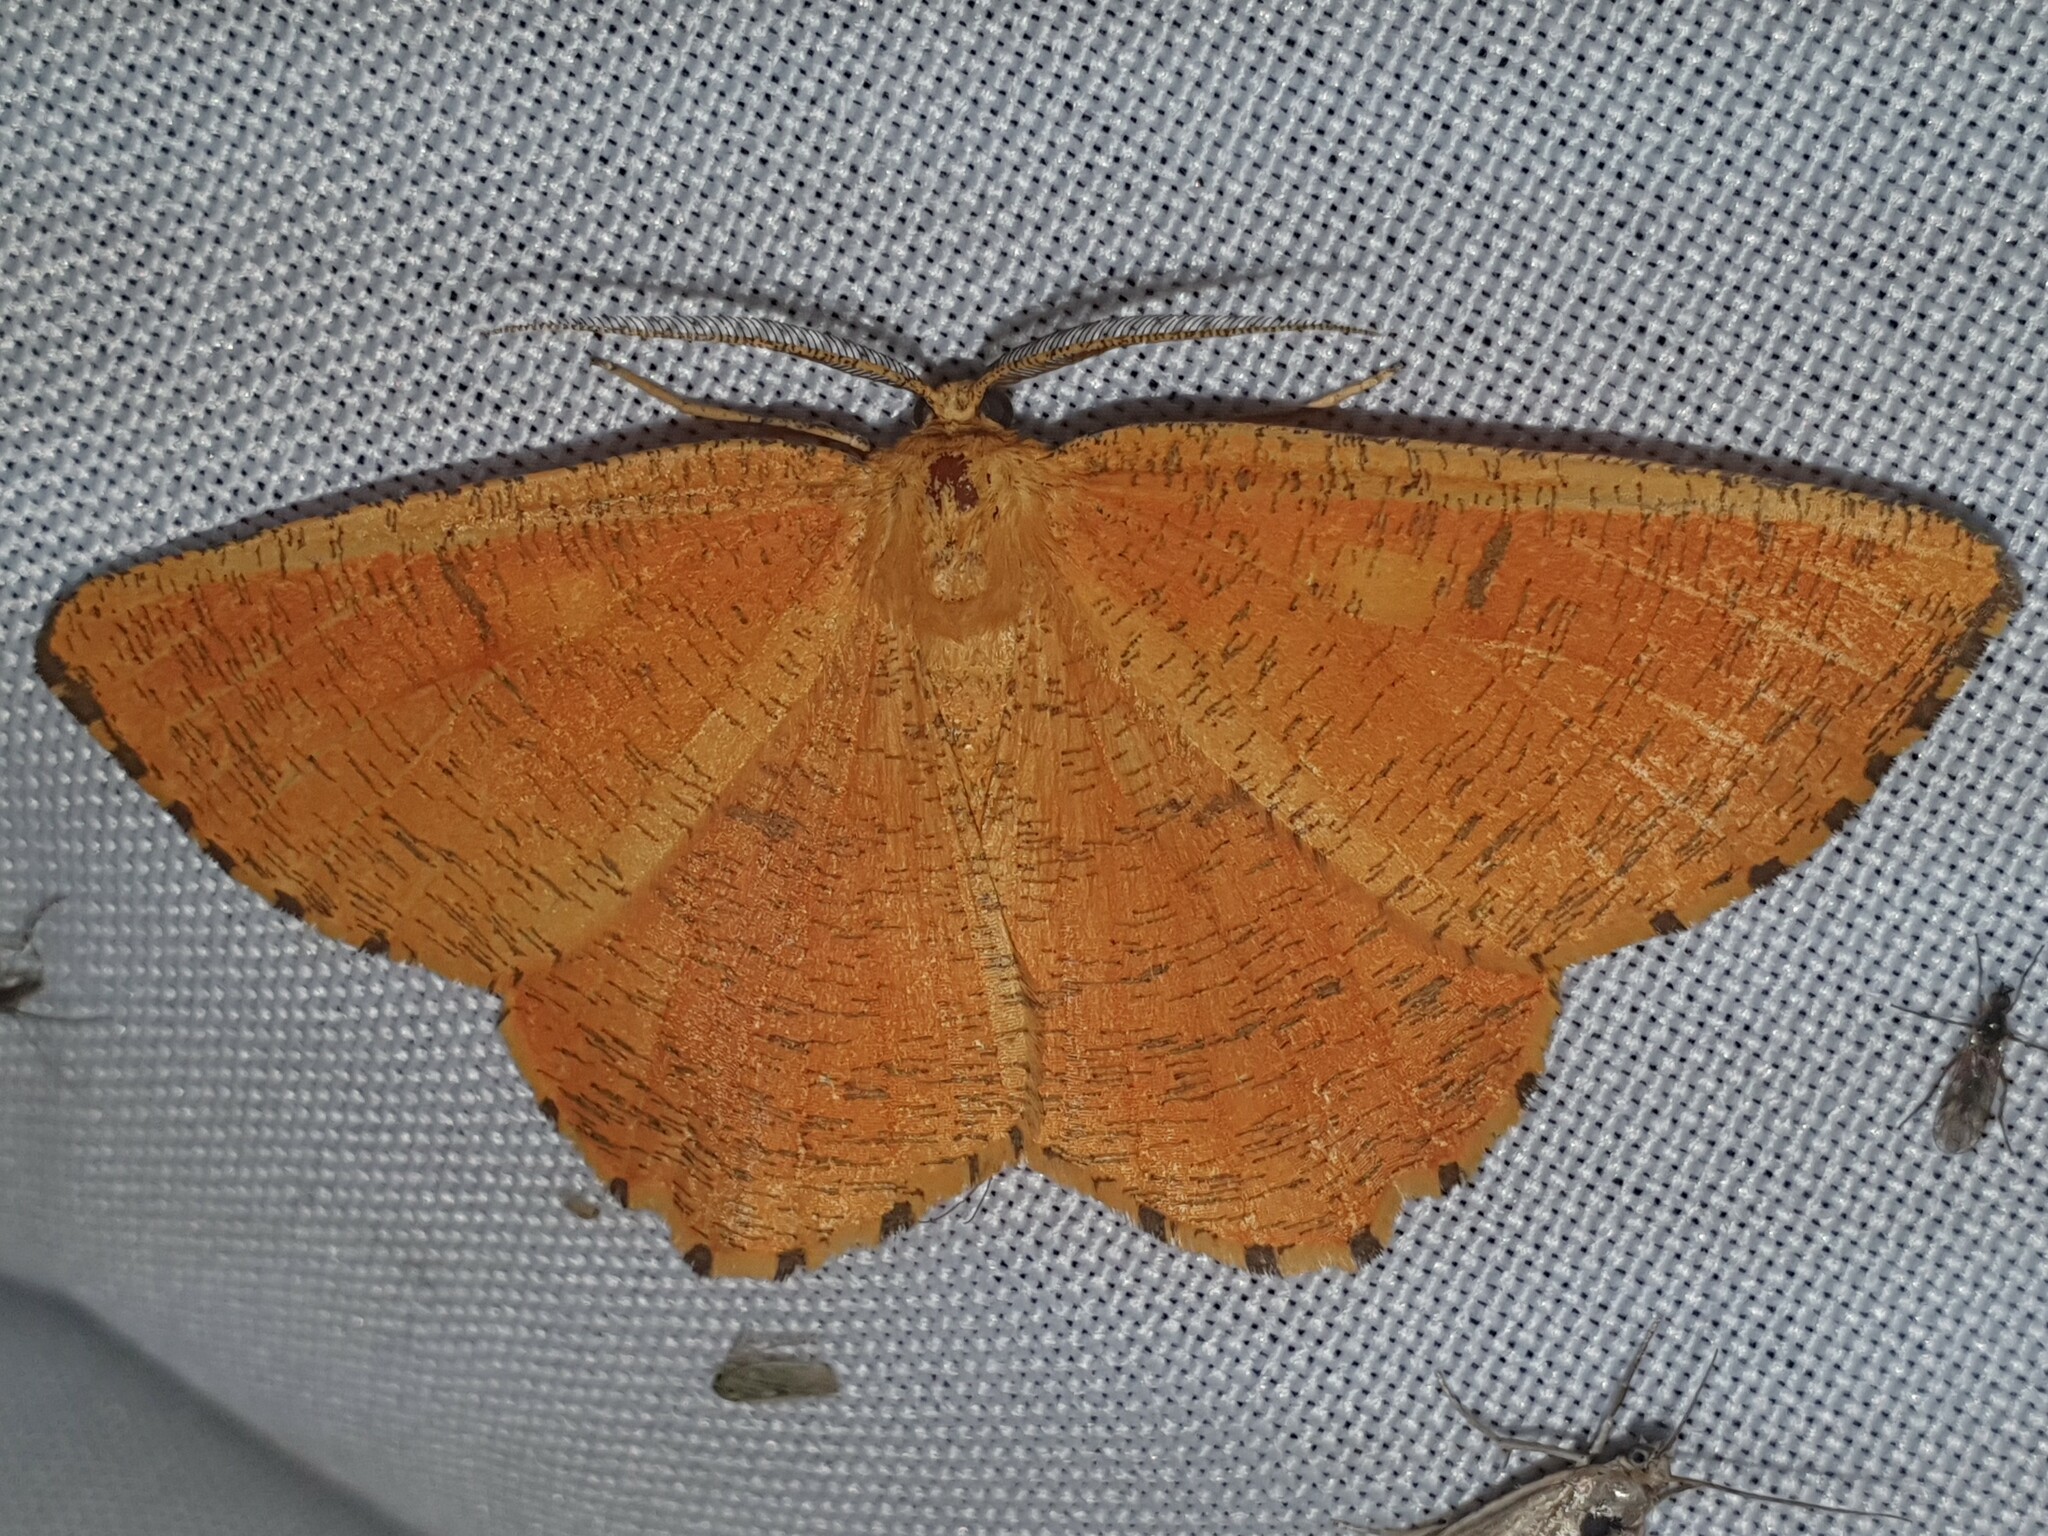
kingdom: Animalia
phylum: Arthropoda
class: Insecta
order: Lepidoptera
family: Geometridae
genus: Angerona
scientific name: Angerona prunaria
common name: Orange moth
